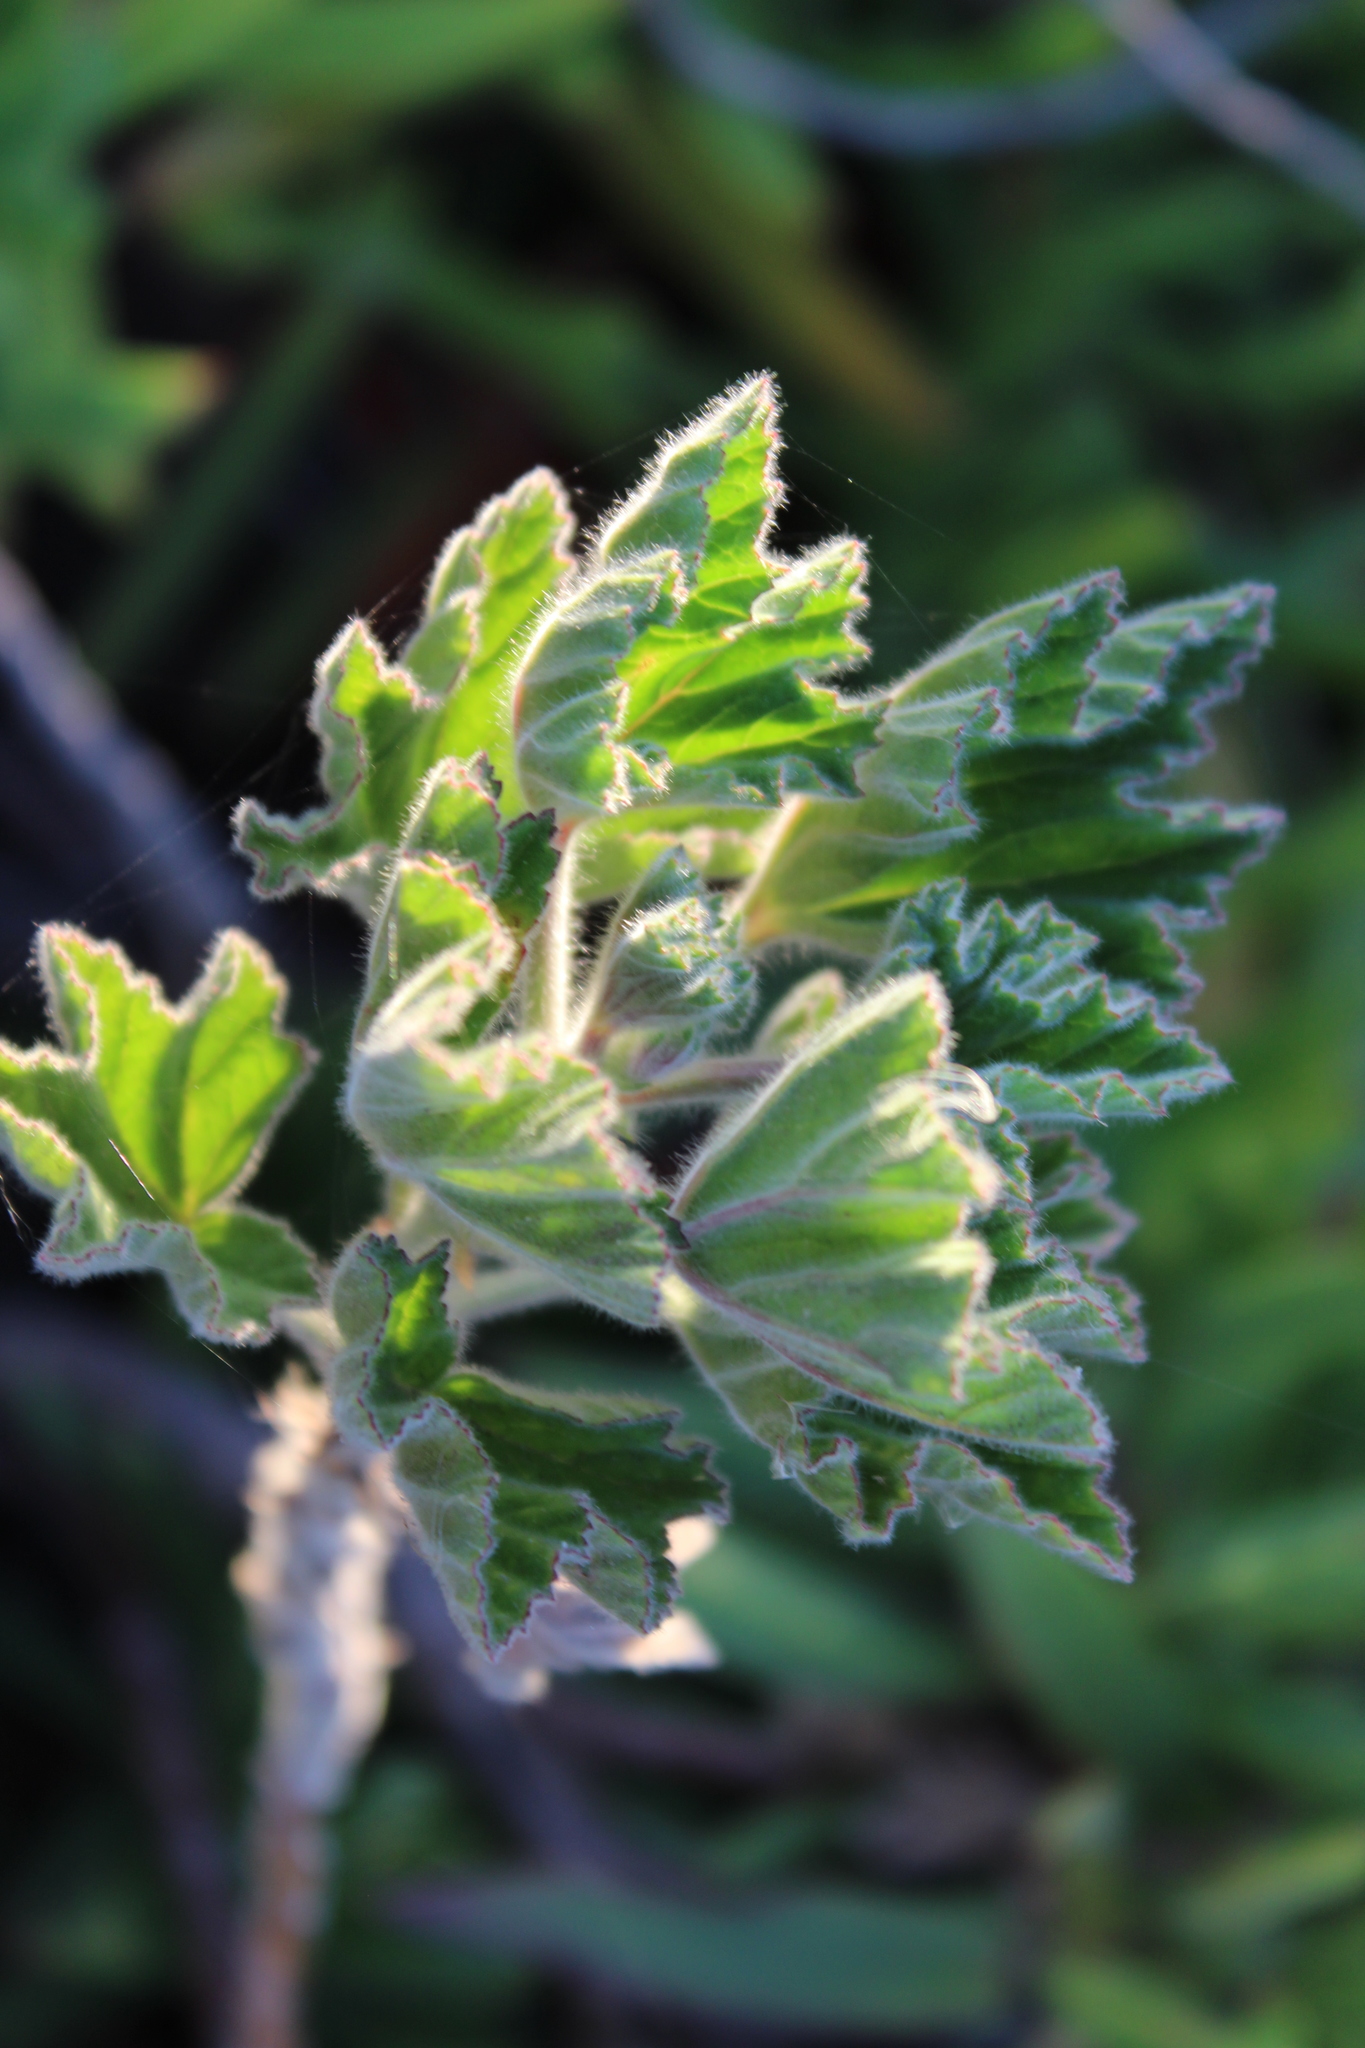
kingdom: Plantae
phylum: Tracheophyta
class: Magnoliopsida
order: Geraniales
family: Geraniaceae
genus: Pelargonium
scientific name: Pelargonium cucullatum
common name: Tree pelargonium
